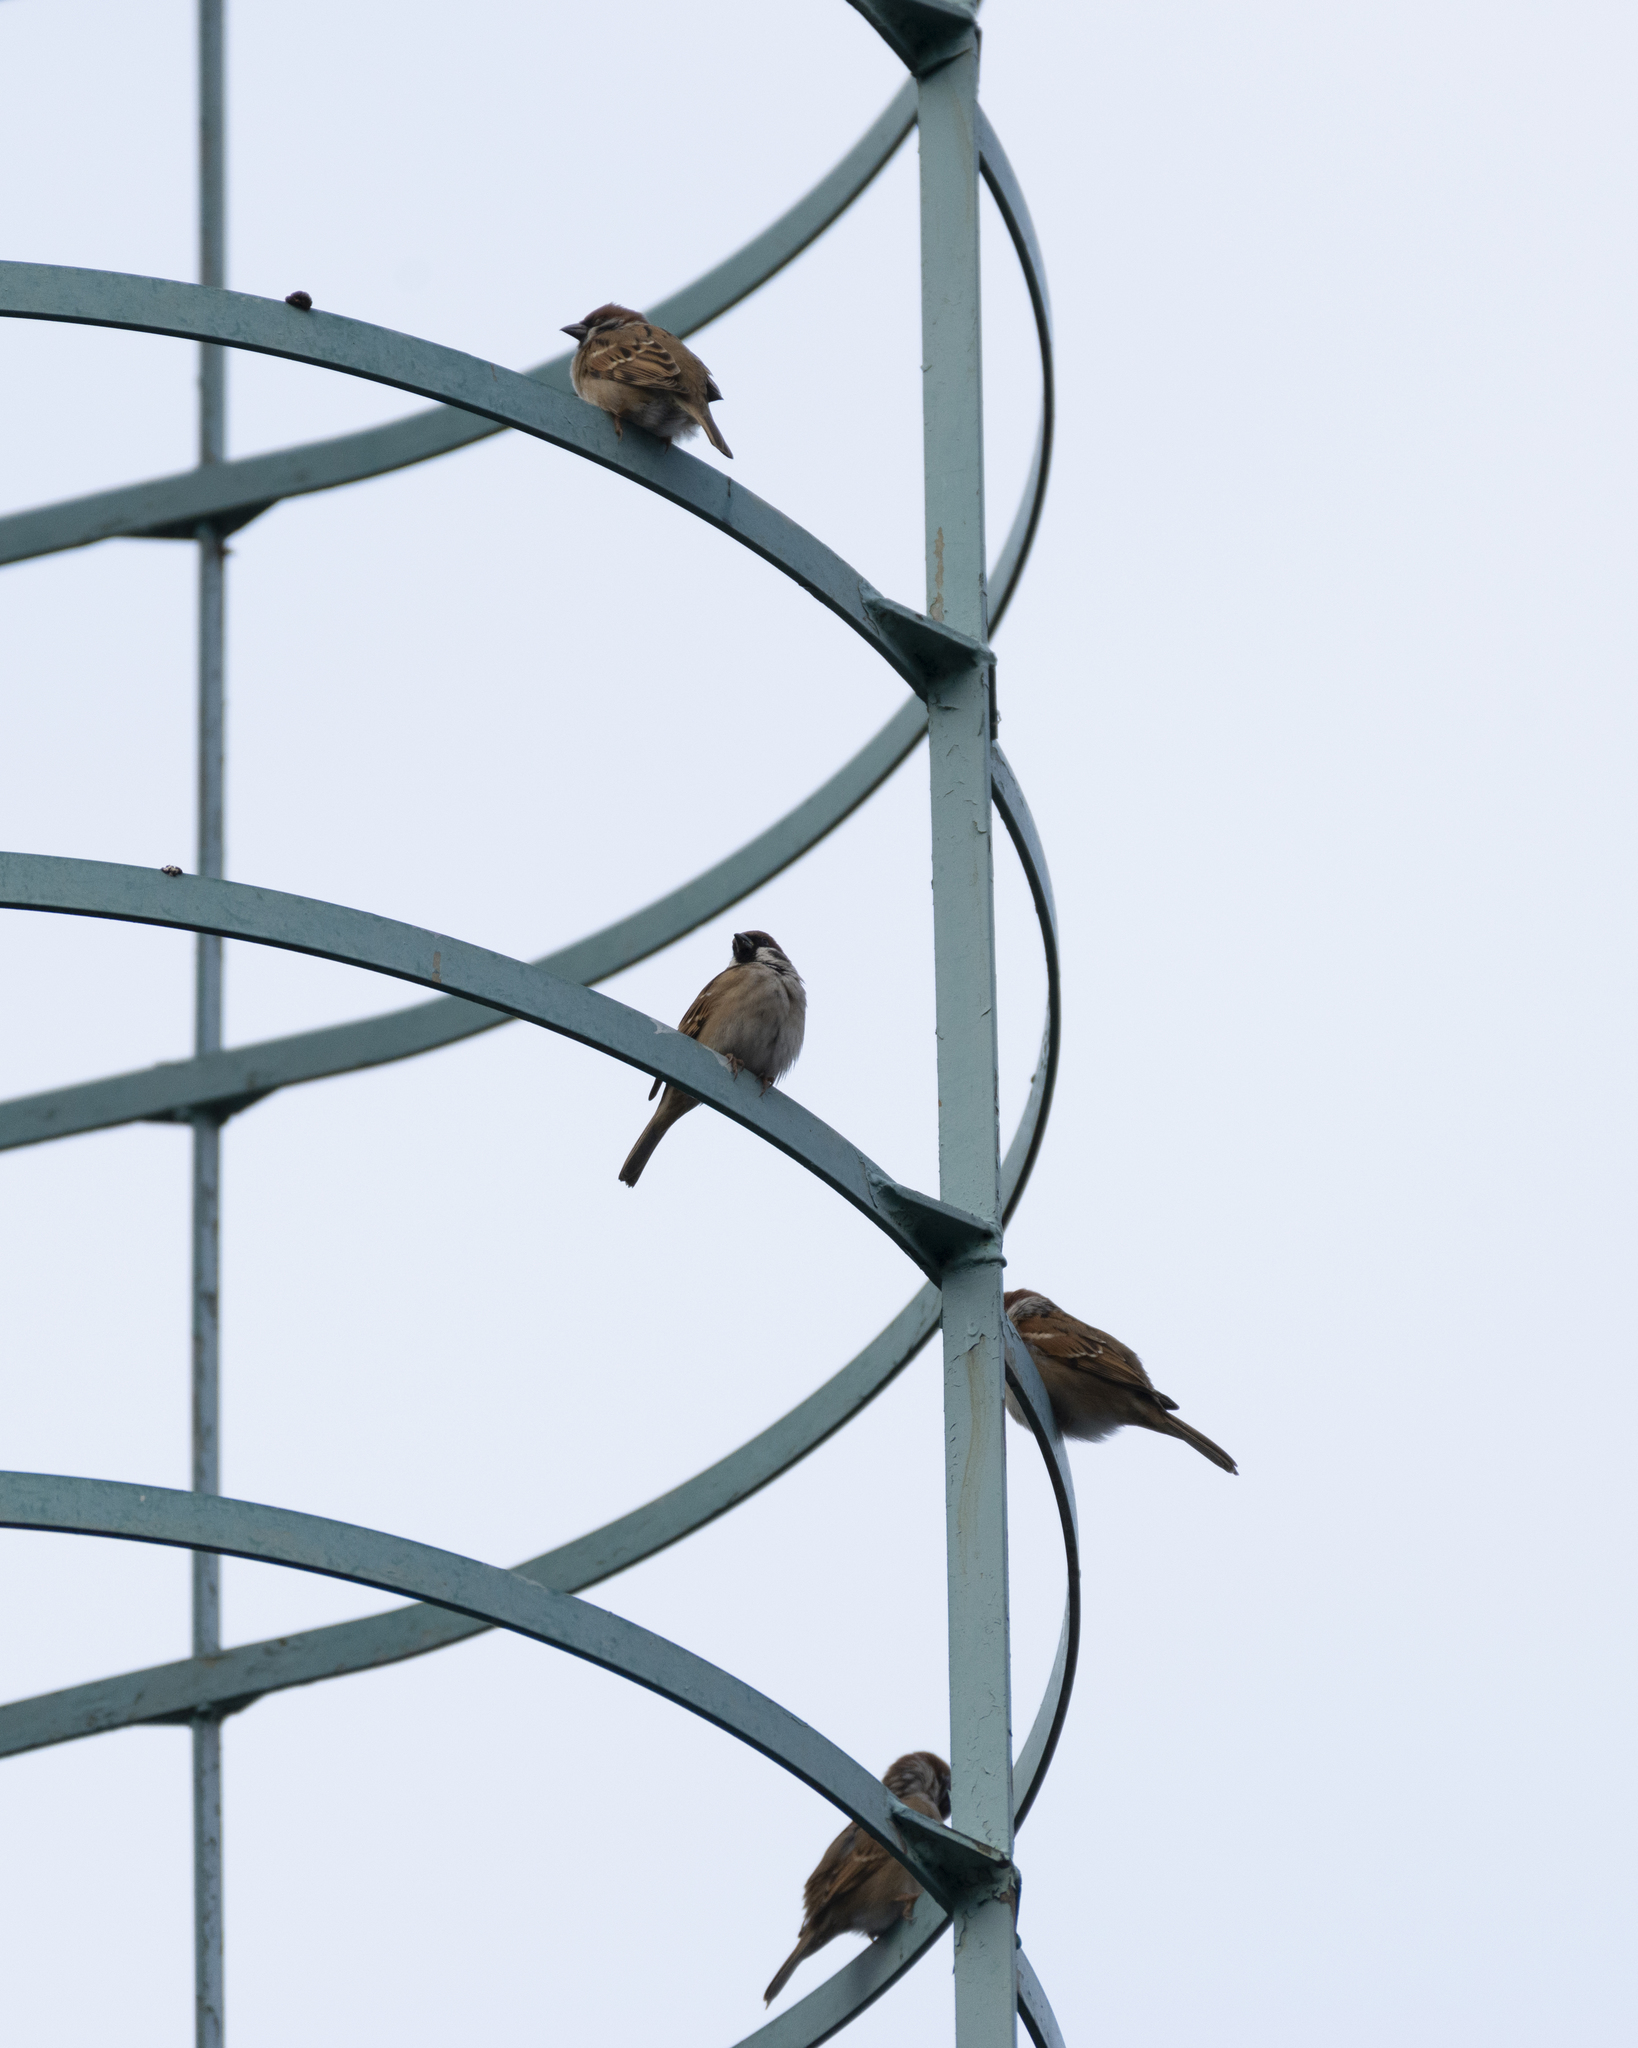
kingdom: Animalia
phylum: Chordata
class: Aves
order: Passeriformes
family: Passeridae
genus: Passer
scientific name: Passer montanus
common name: Eurasian tree sparrow
